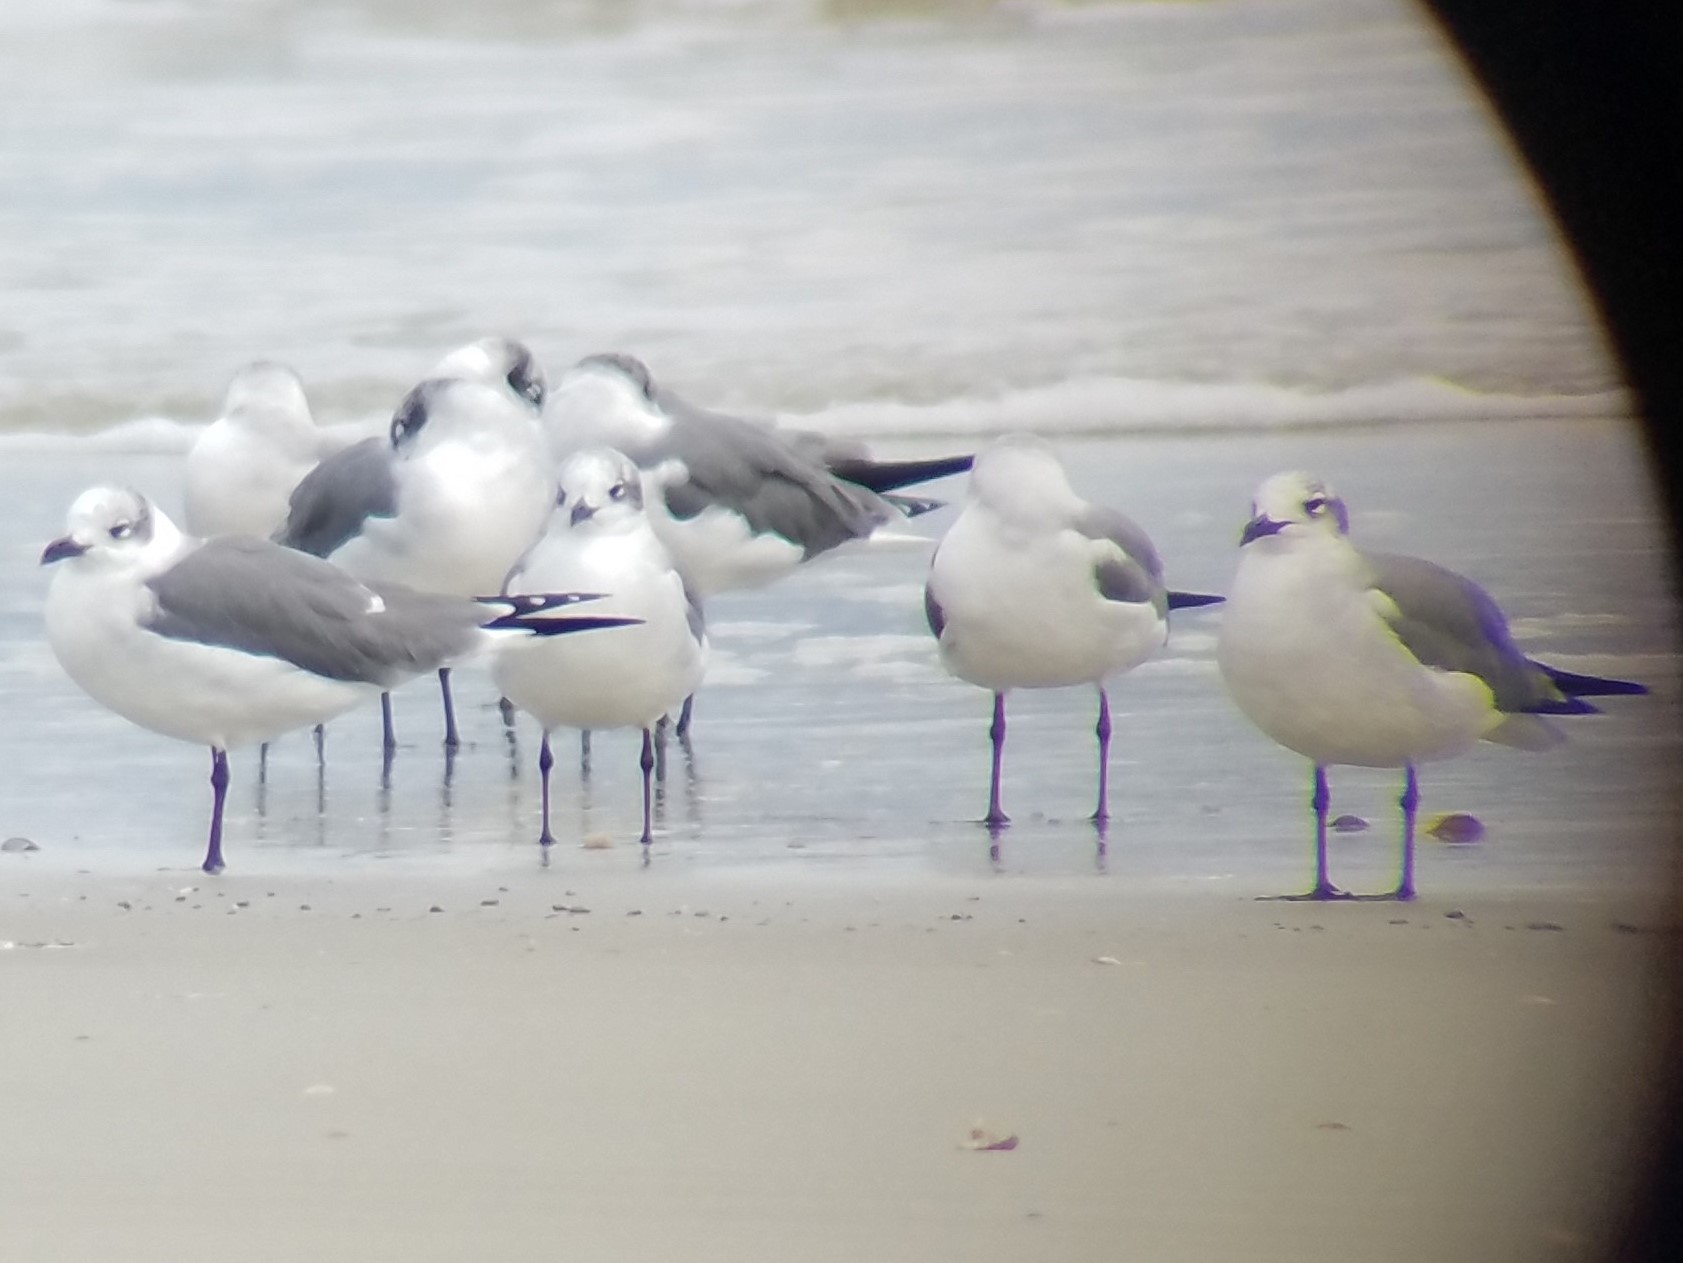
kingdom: Animalia
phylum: Chordata
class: Aves
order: Charadriiformes
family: Laridae
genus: Leucophaeus
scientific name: Leucophaeus atricilla
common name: Laughing gull
